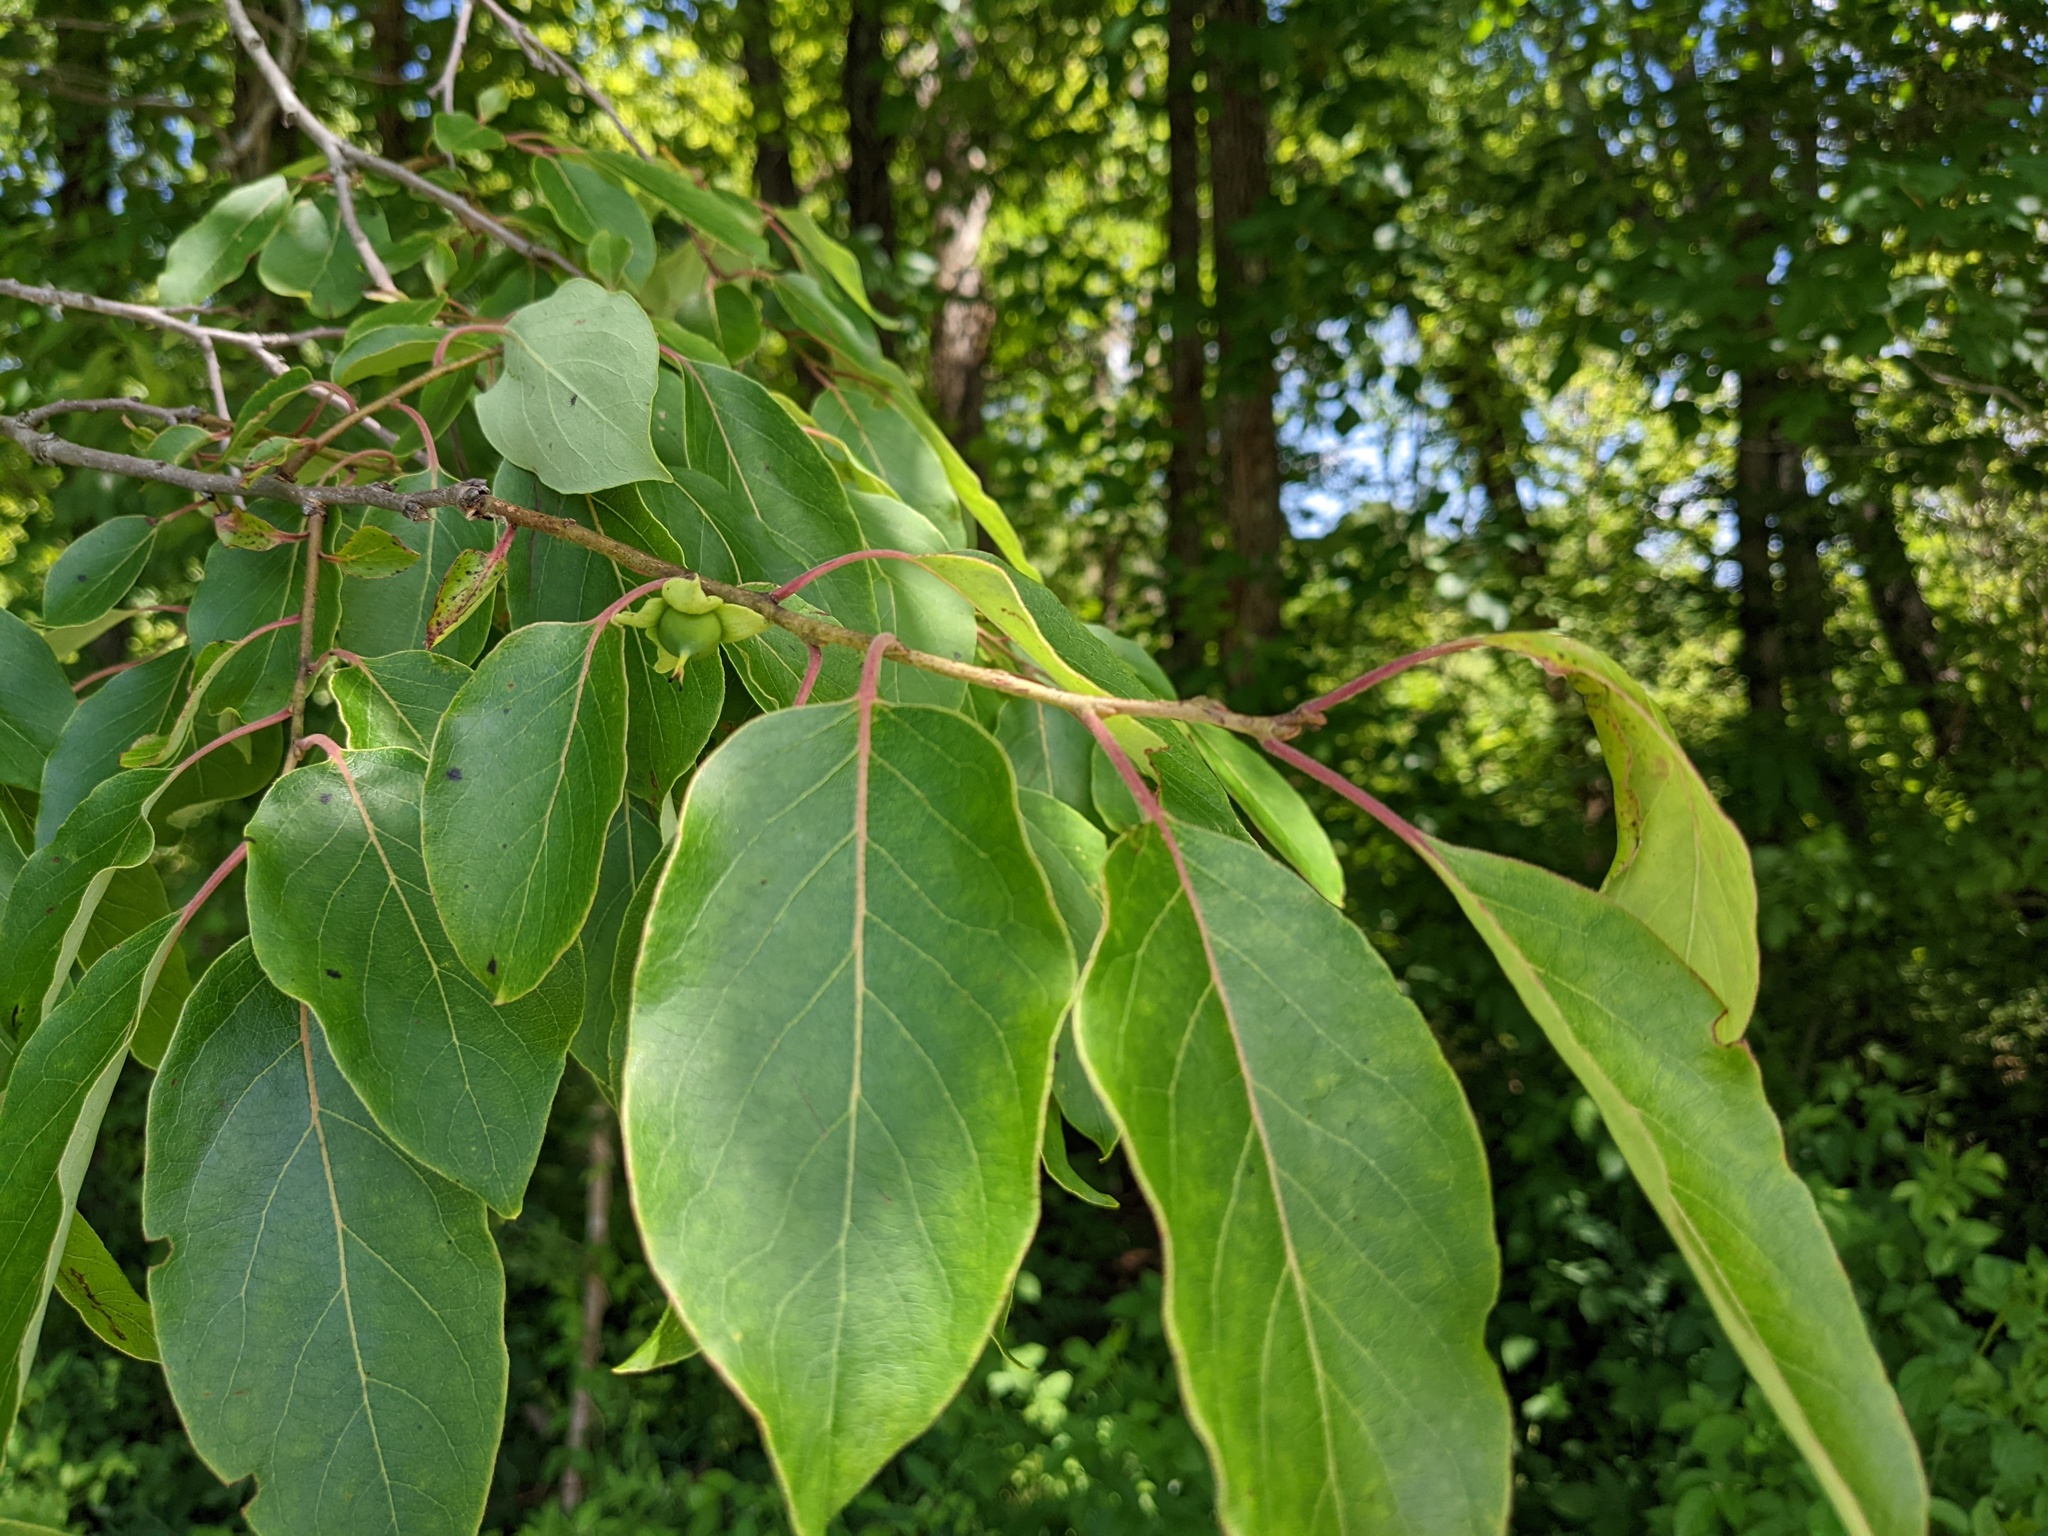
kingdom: Plantae
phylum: Tracheophyta
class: Magnoliopsida
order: Ericales
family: Ebenaceae
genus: Diospyros
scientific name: Diospyros virginiana
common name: Persimmon
